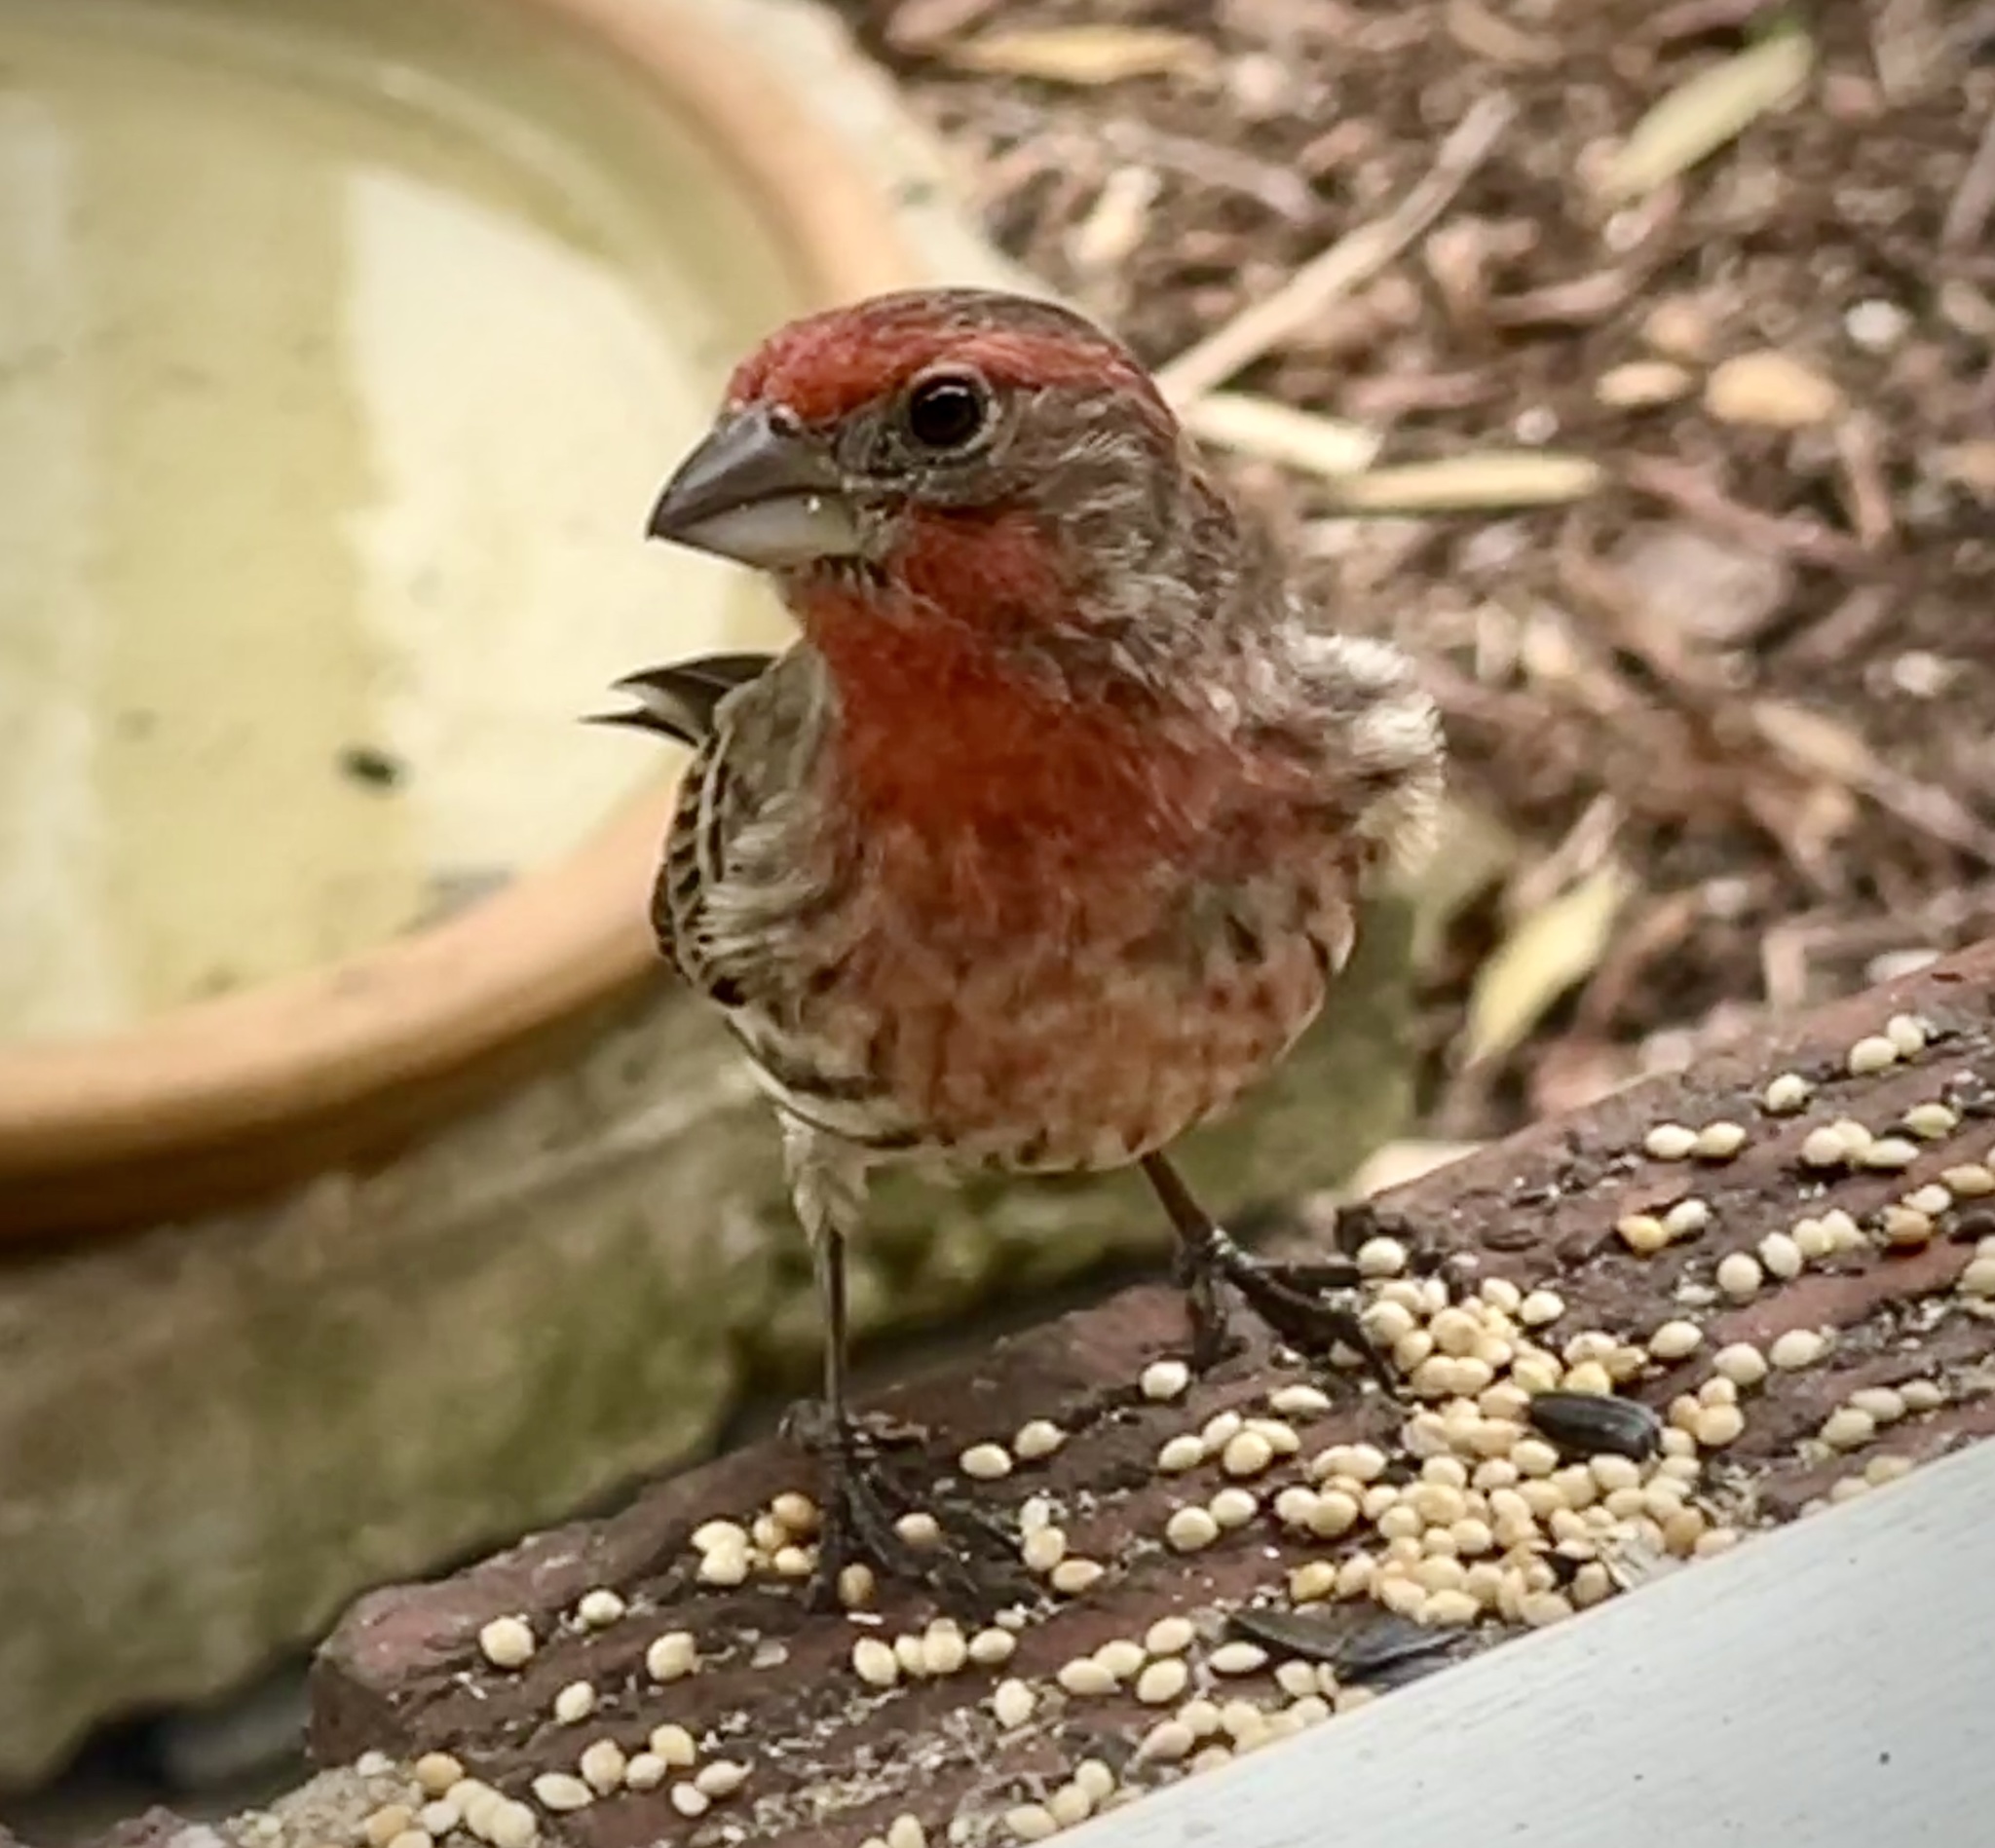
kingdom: Animalia
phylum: Chordata
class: Aves
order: Passeriformes
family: Fringillidae
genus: Haemorhous
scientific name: Haemorhous mexicanus
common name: House finch
